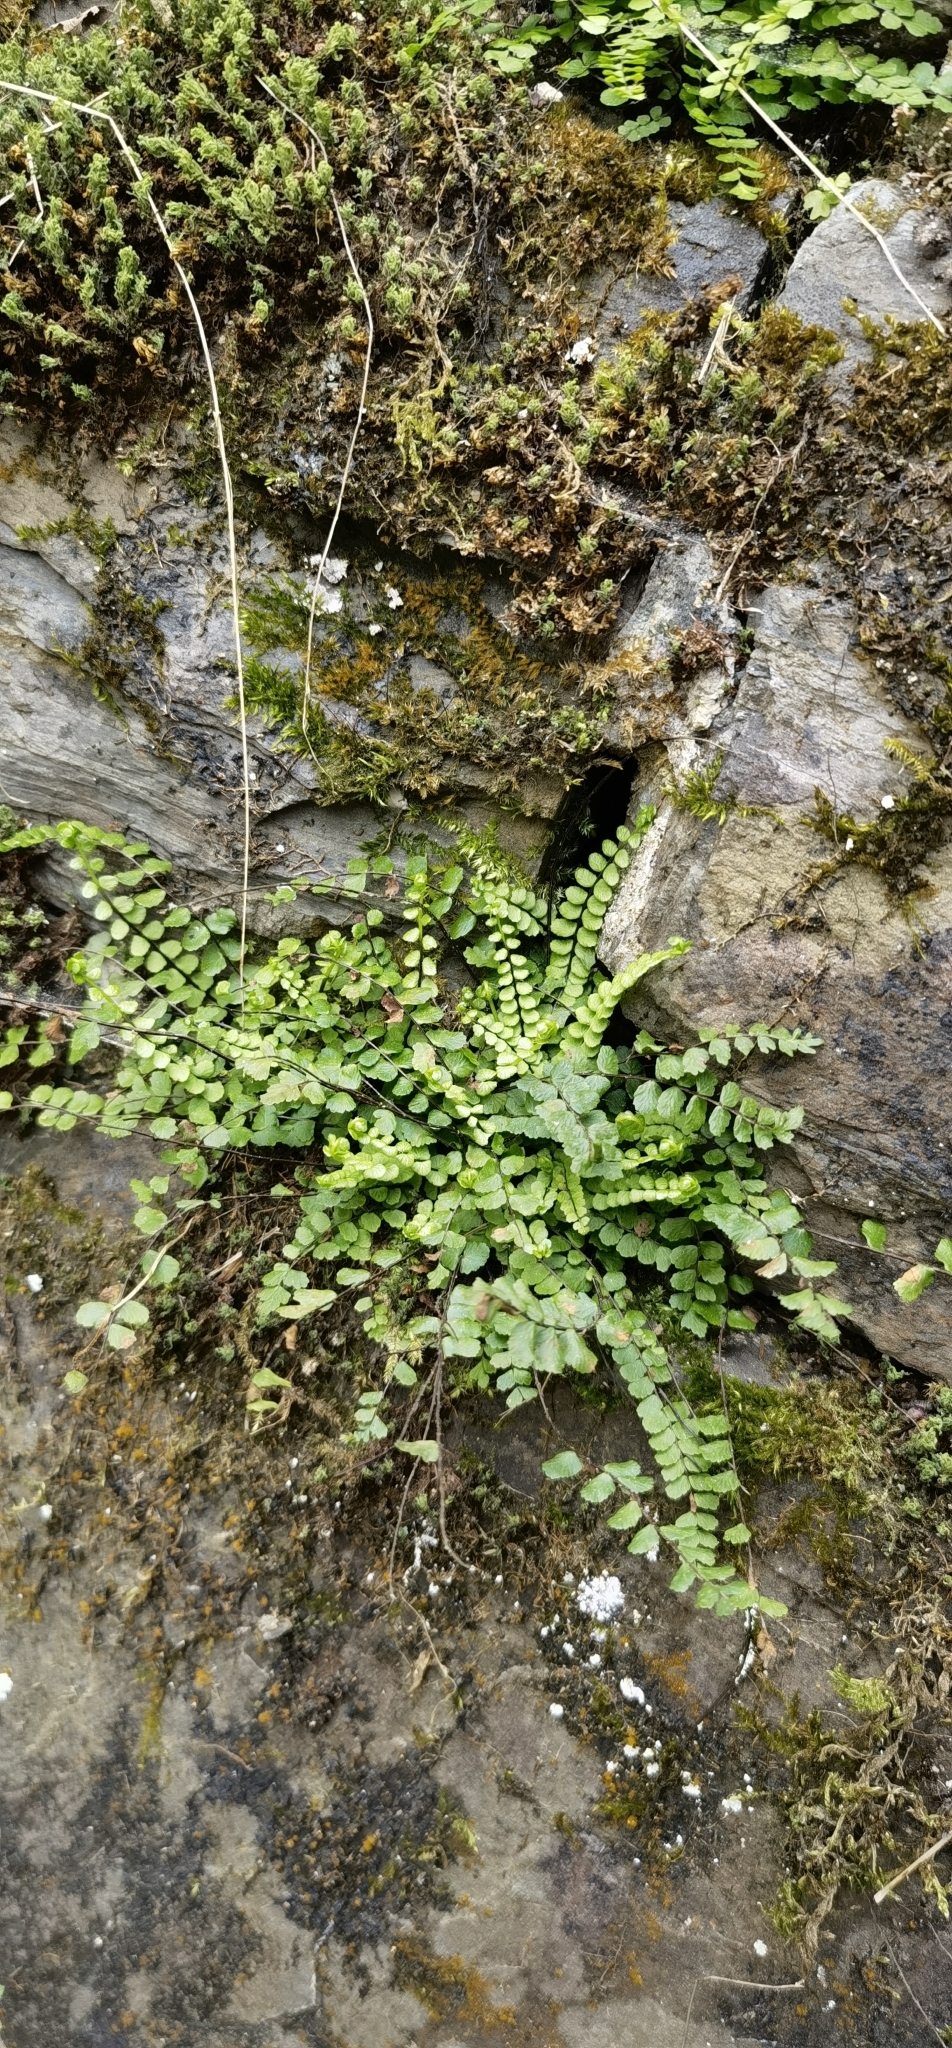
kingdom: Plantae
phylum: Tracheophyta
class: Polypodiopsida
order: Polypodiales
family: Aspleniaceae
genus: Asplenium
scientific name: Asplenium trichomanes
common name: Maidenhair spleenwort
